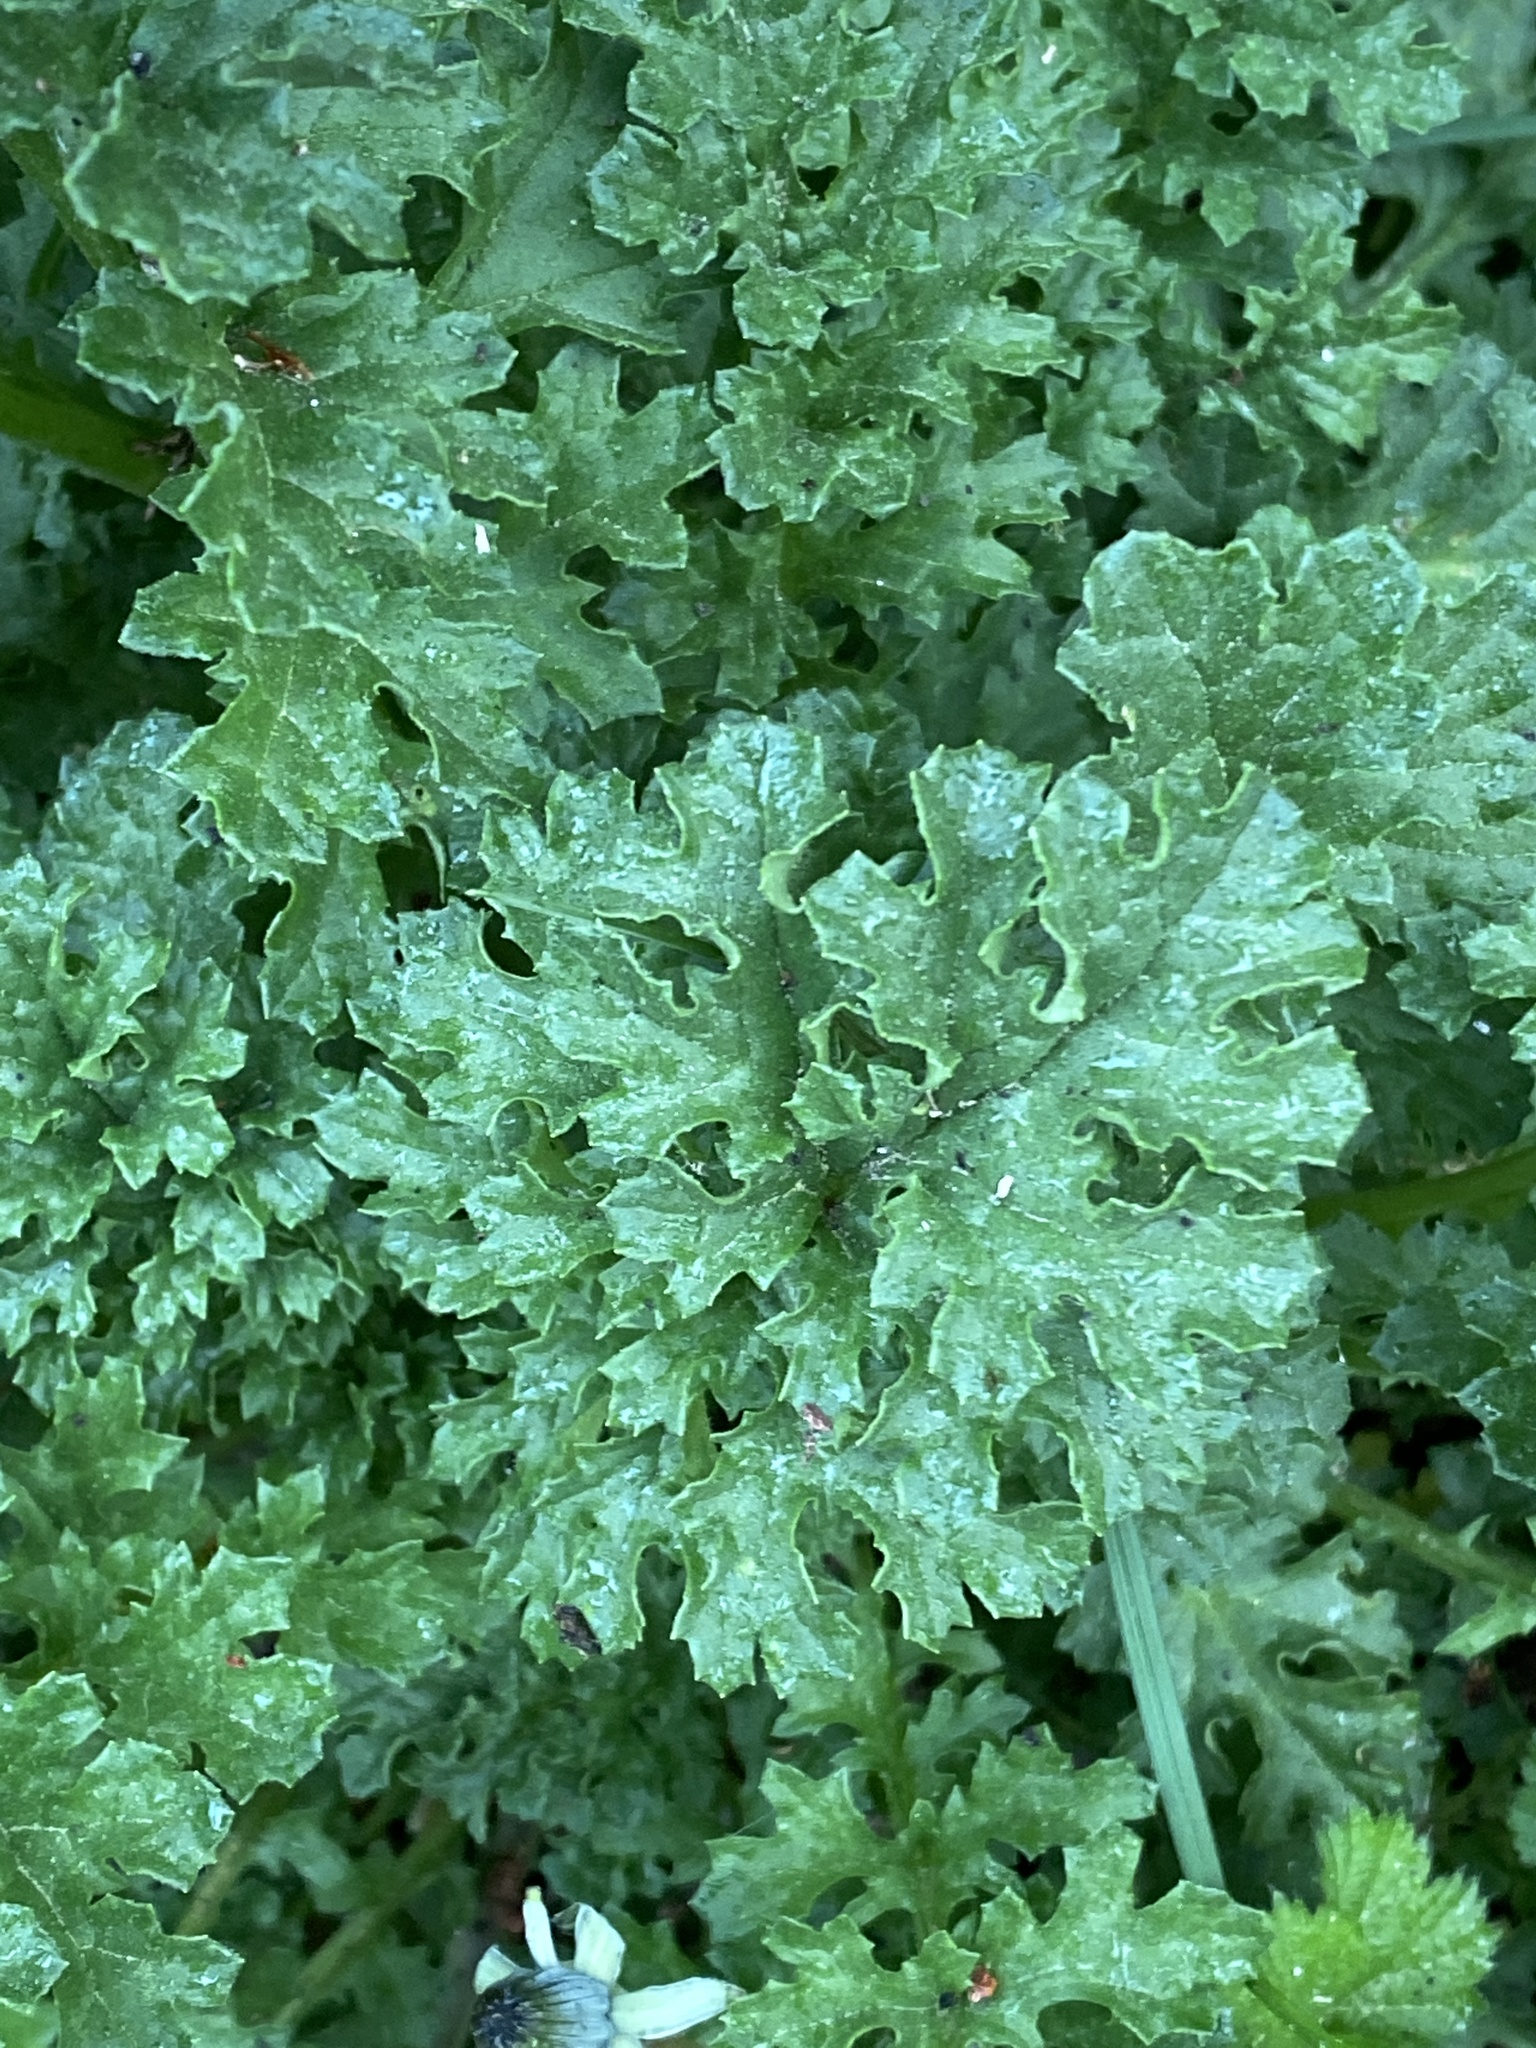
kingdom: Plantae
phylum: Tracheophyta
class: Magnoliopsida
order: Asterales
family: Asteraceae
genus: Jacobaea
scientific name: Jacobaea vulgaris
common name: Stinking willie
